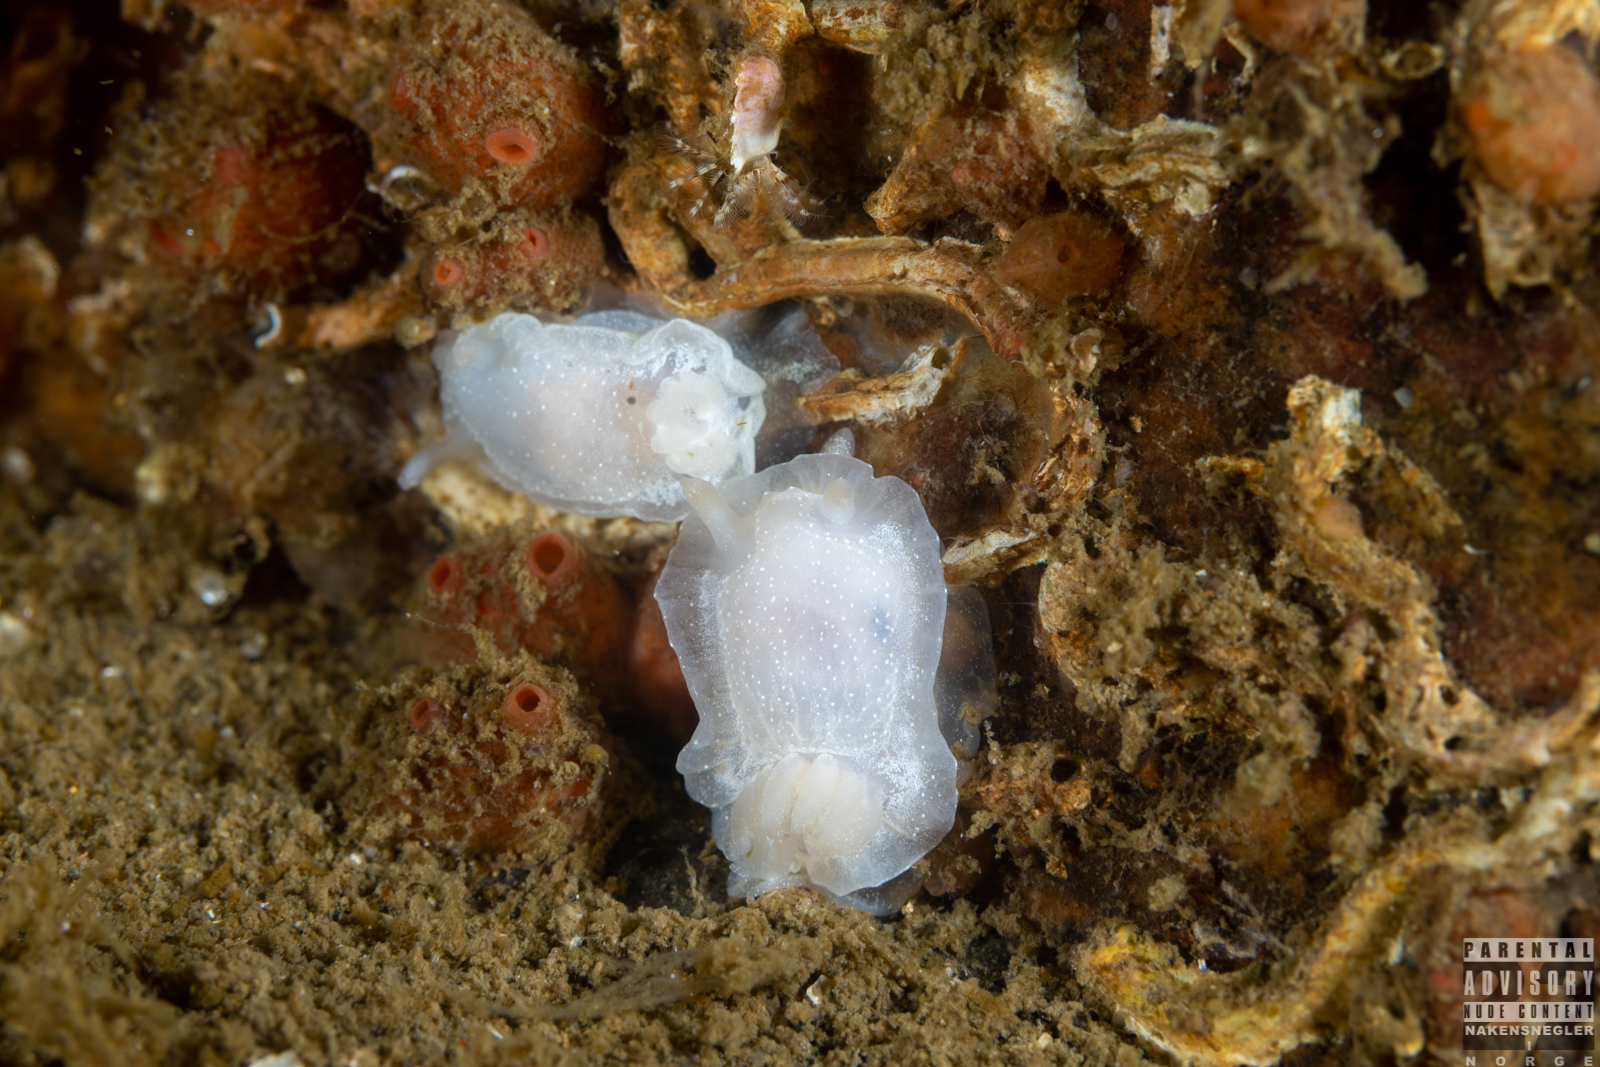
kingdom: Animalia
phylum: Mollusca
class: Gastropoda
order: Nudibranchia
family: Goniodorididae
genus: Okenia
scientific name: Okenia
